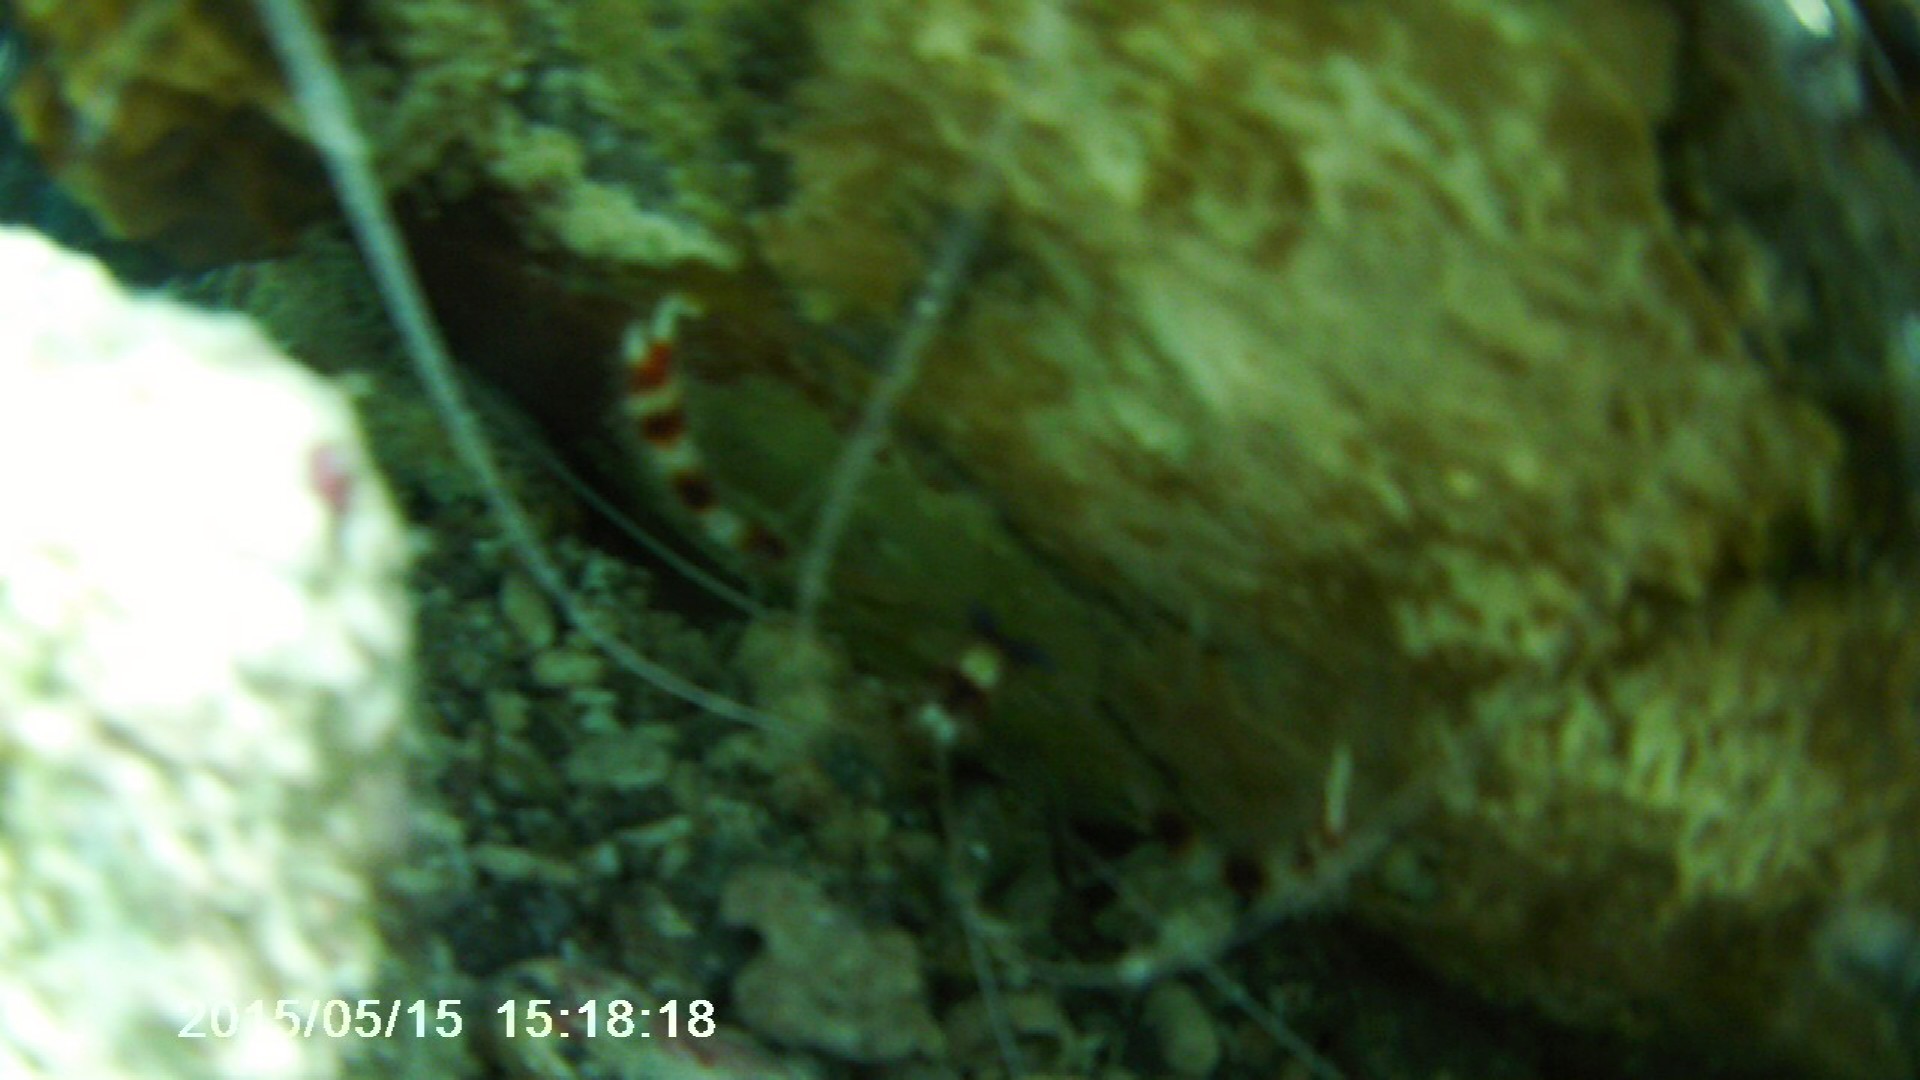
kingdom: Animalia
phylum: Arthropoda
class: Malacostraca
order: Decapoda
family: Stenopodidae
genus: Stenopus
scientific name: Stenopus hispidus
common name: Banded coral shrimp
